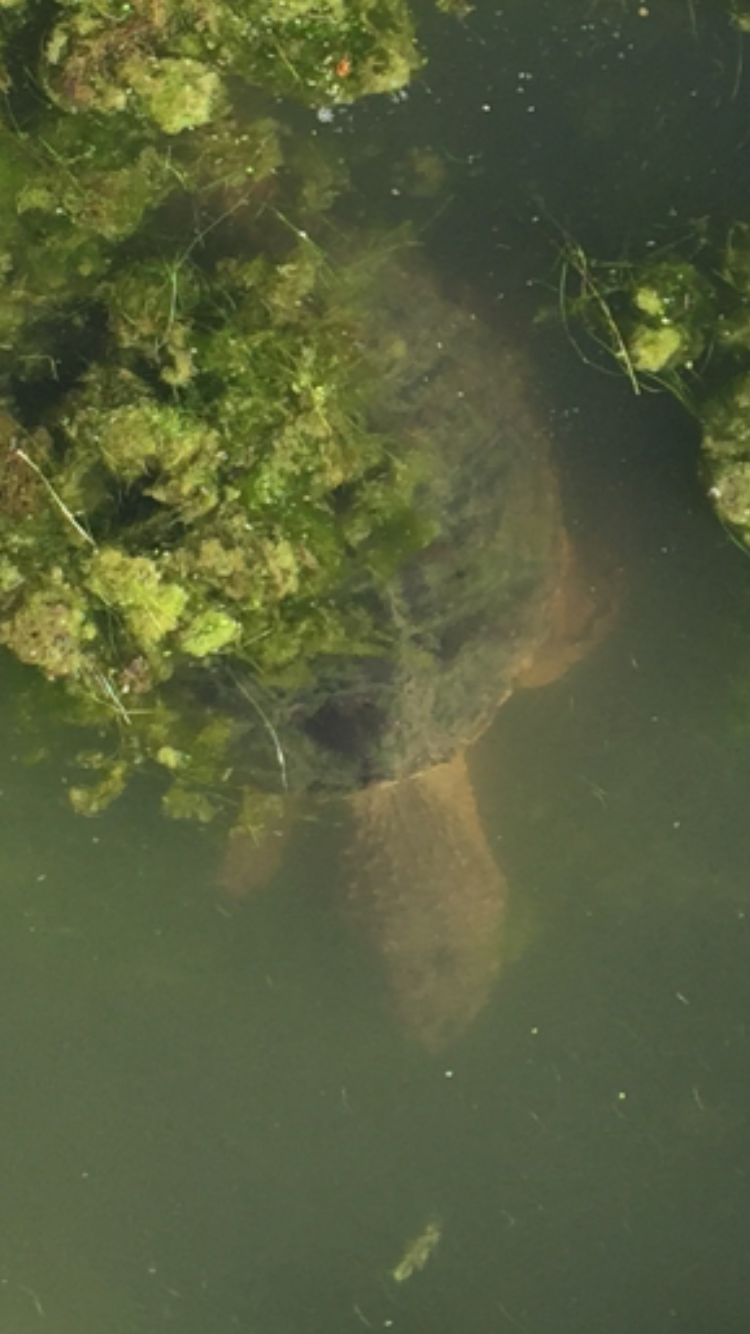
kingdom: Animalia
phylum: Chordata
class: Testudines
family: Chelydridae
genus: Chelydra
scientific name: Chelydra serpentina
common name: Common snapping turtle
